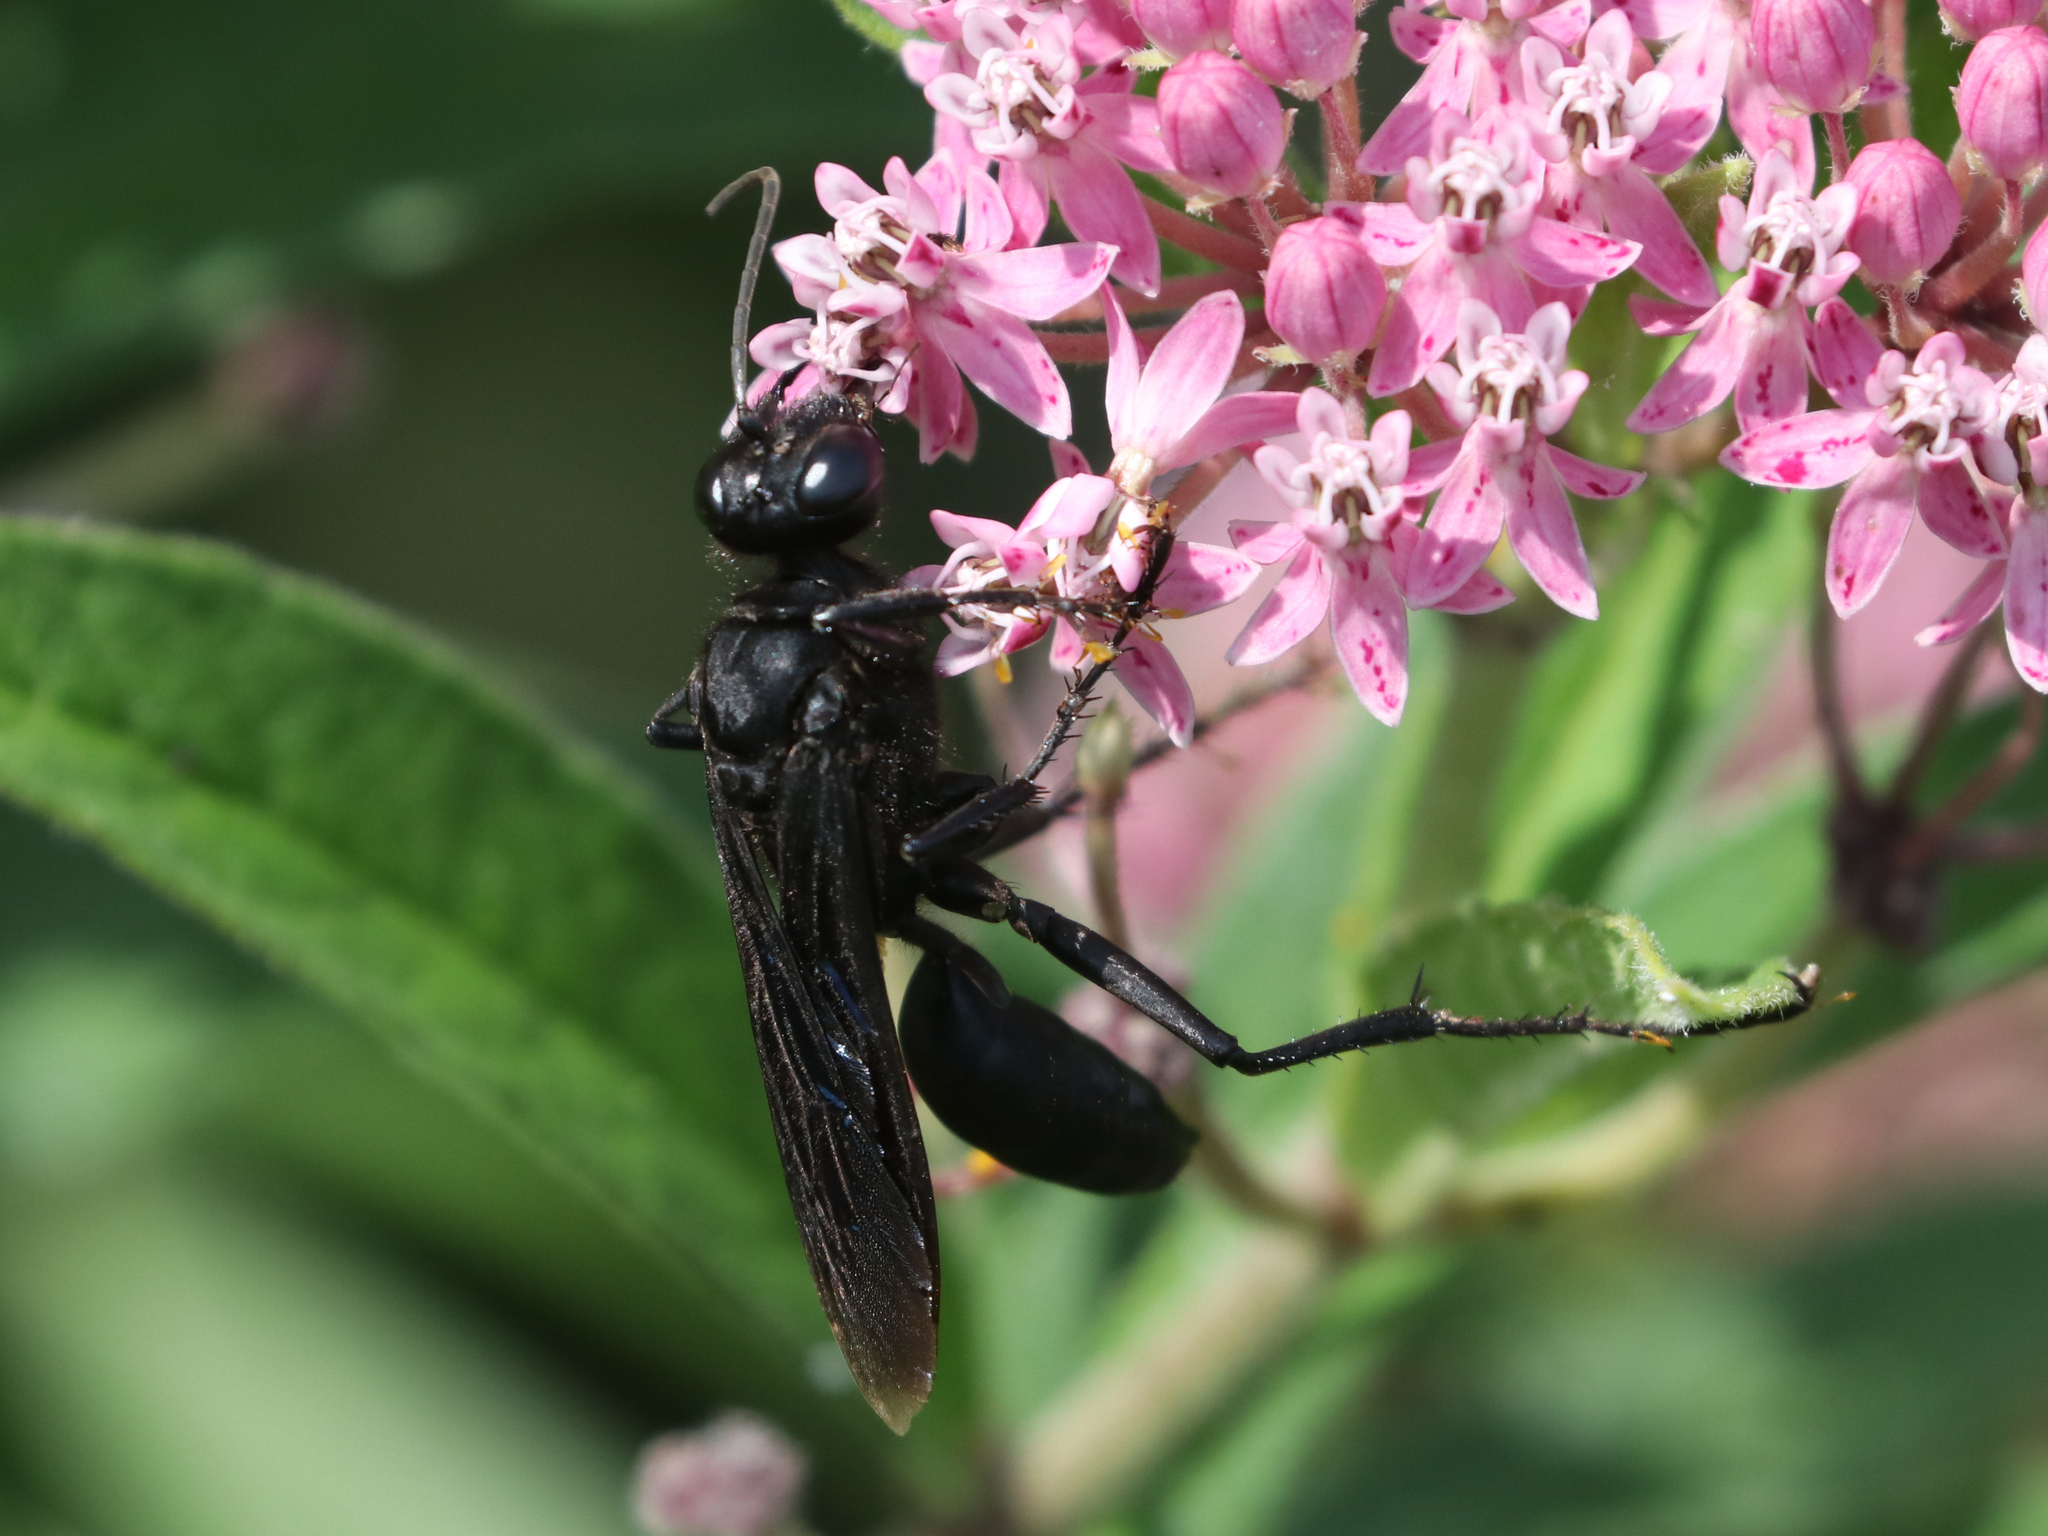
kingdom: Animalia
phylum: Arthropoda
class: Insecta
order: Hymenoptera
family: Sphecidae
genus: Sphex
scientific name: Sphex pensylvanicus
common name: Great black digger wasp
